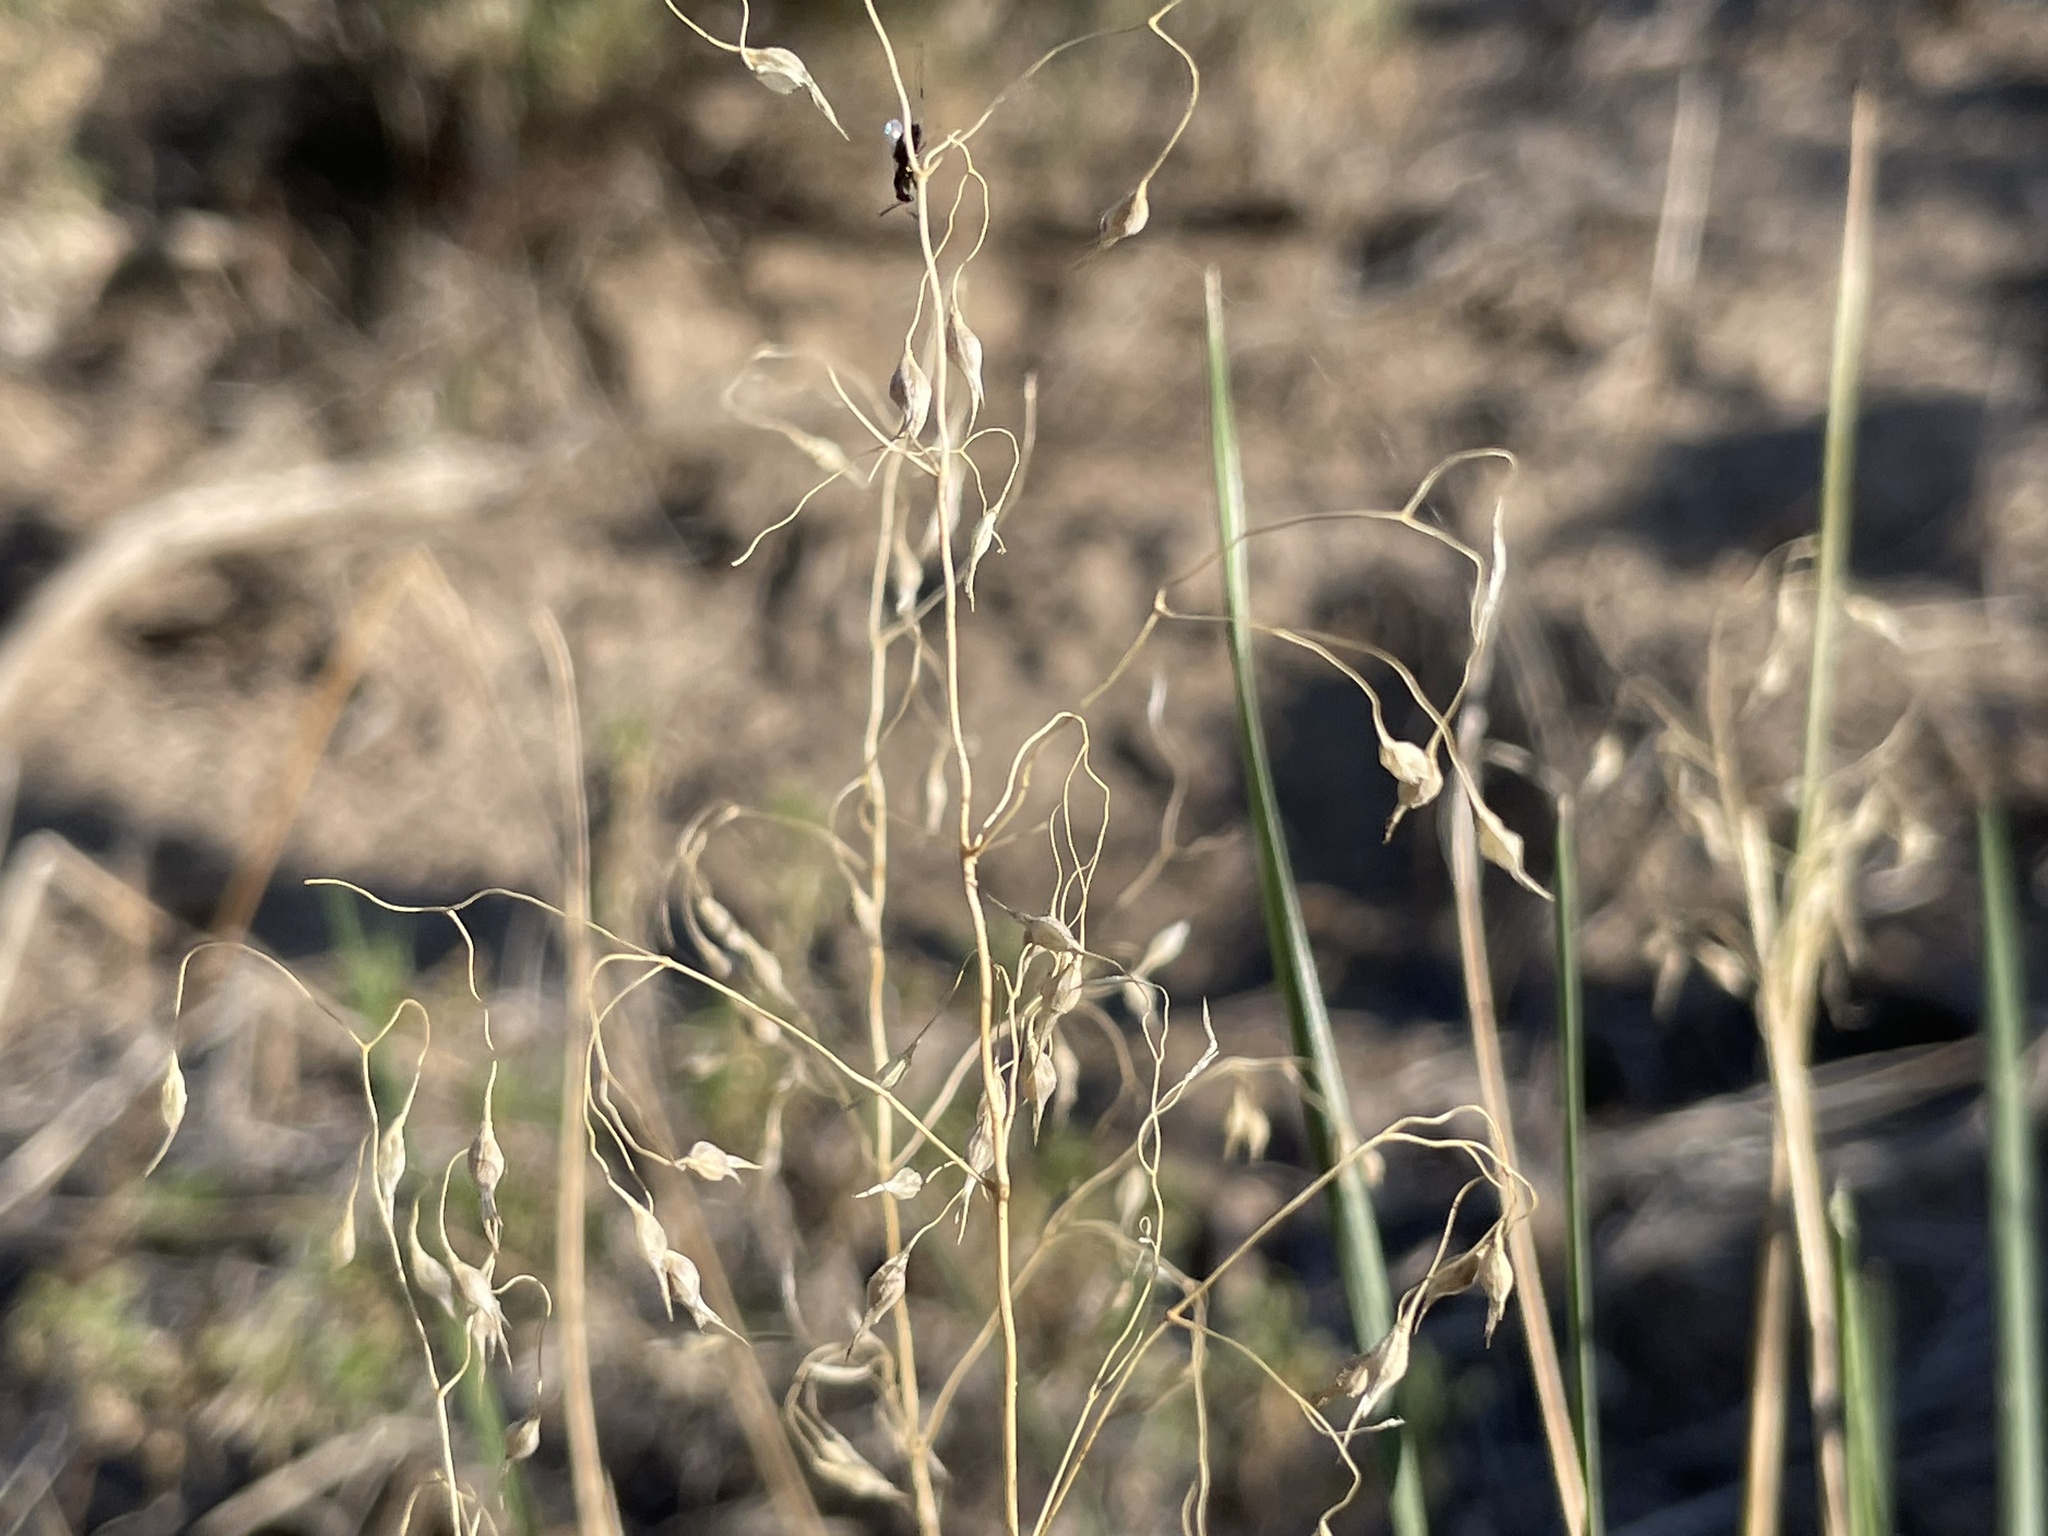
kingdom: Plantae
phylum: Tracheophyta
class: Liliopsida
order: Poales
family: Poaceae
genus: Eriocoma
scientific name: Eriocoma hymenoides
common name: Indian mountain ricegrass
